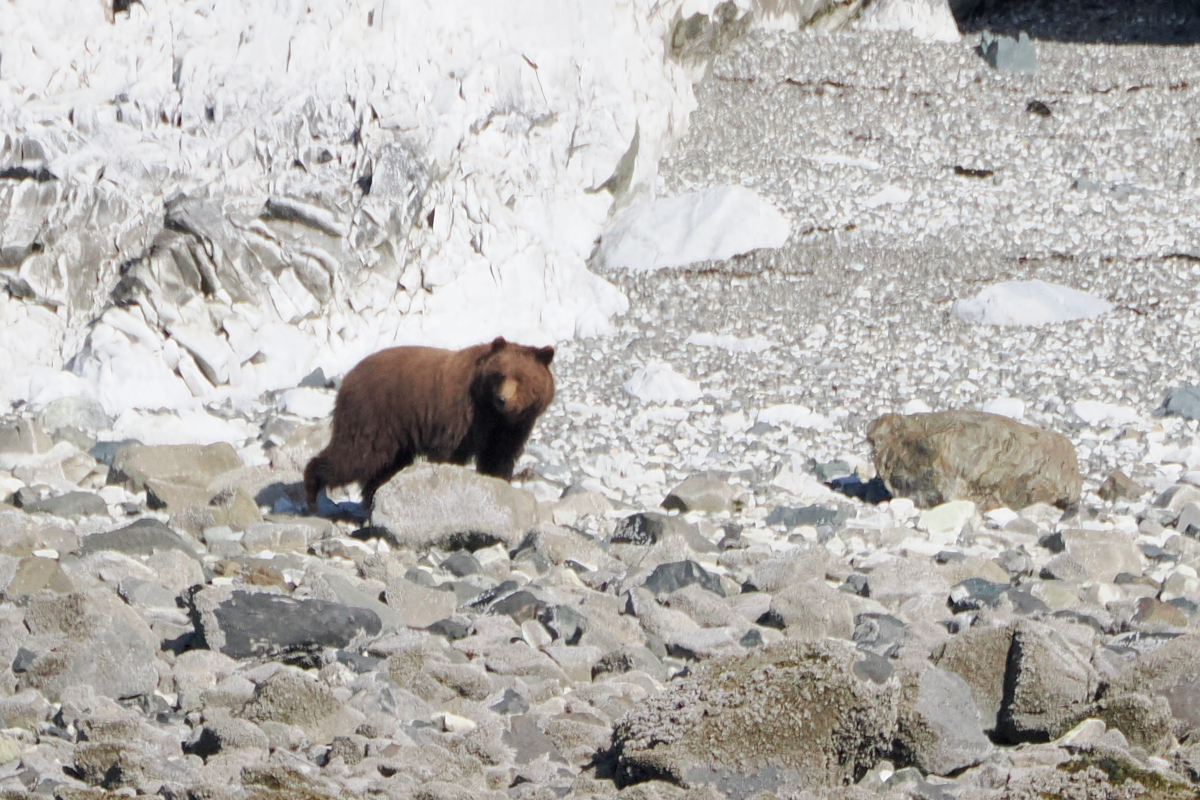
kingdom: Animalia
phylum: Chordata
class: Mammalia
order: Carnivora
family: Ursidae
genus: Ursus
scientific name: Ursus arctos
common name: Brown bear
